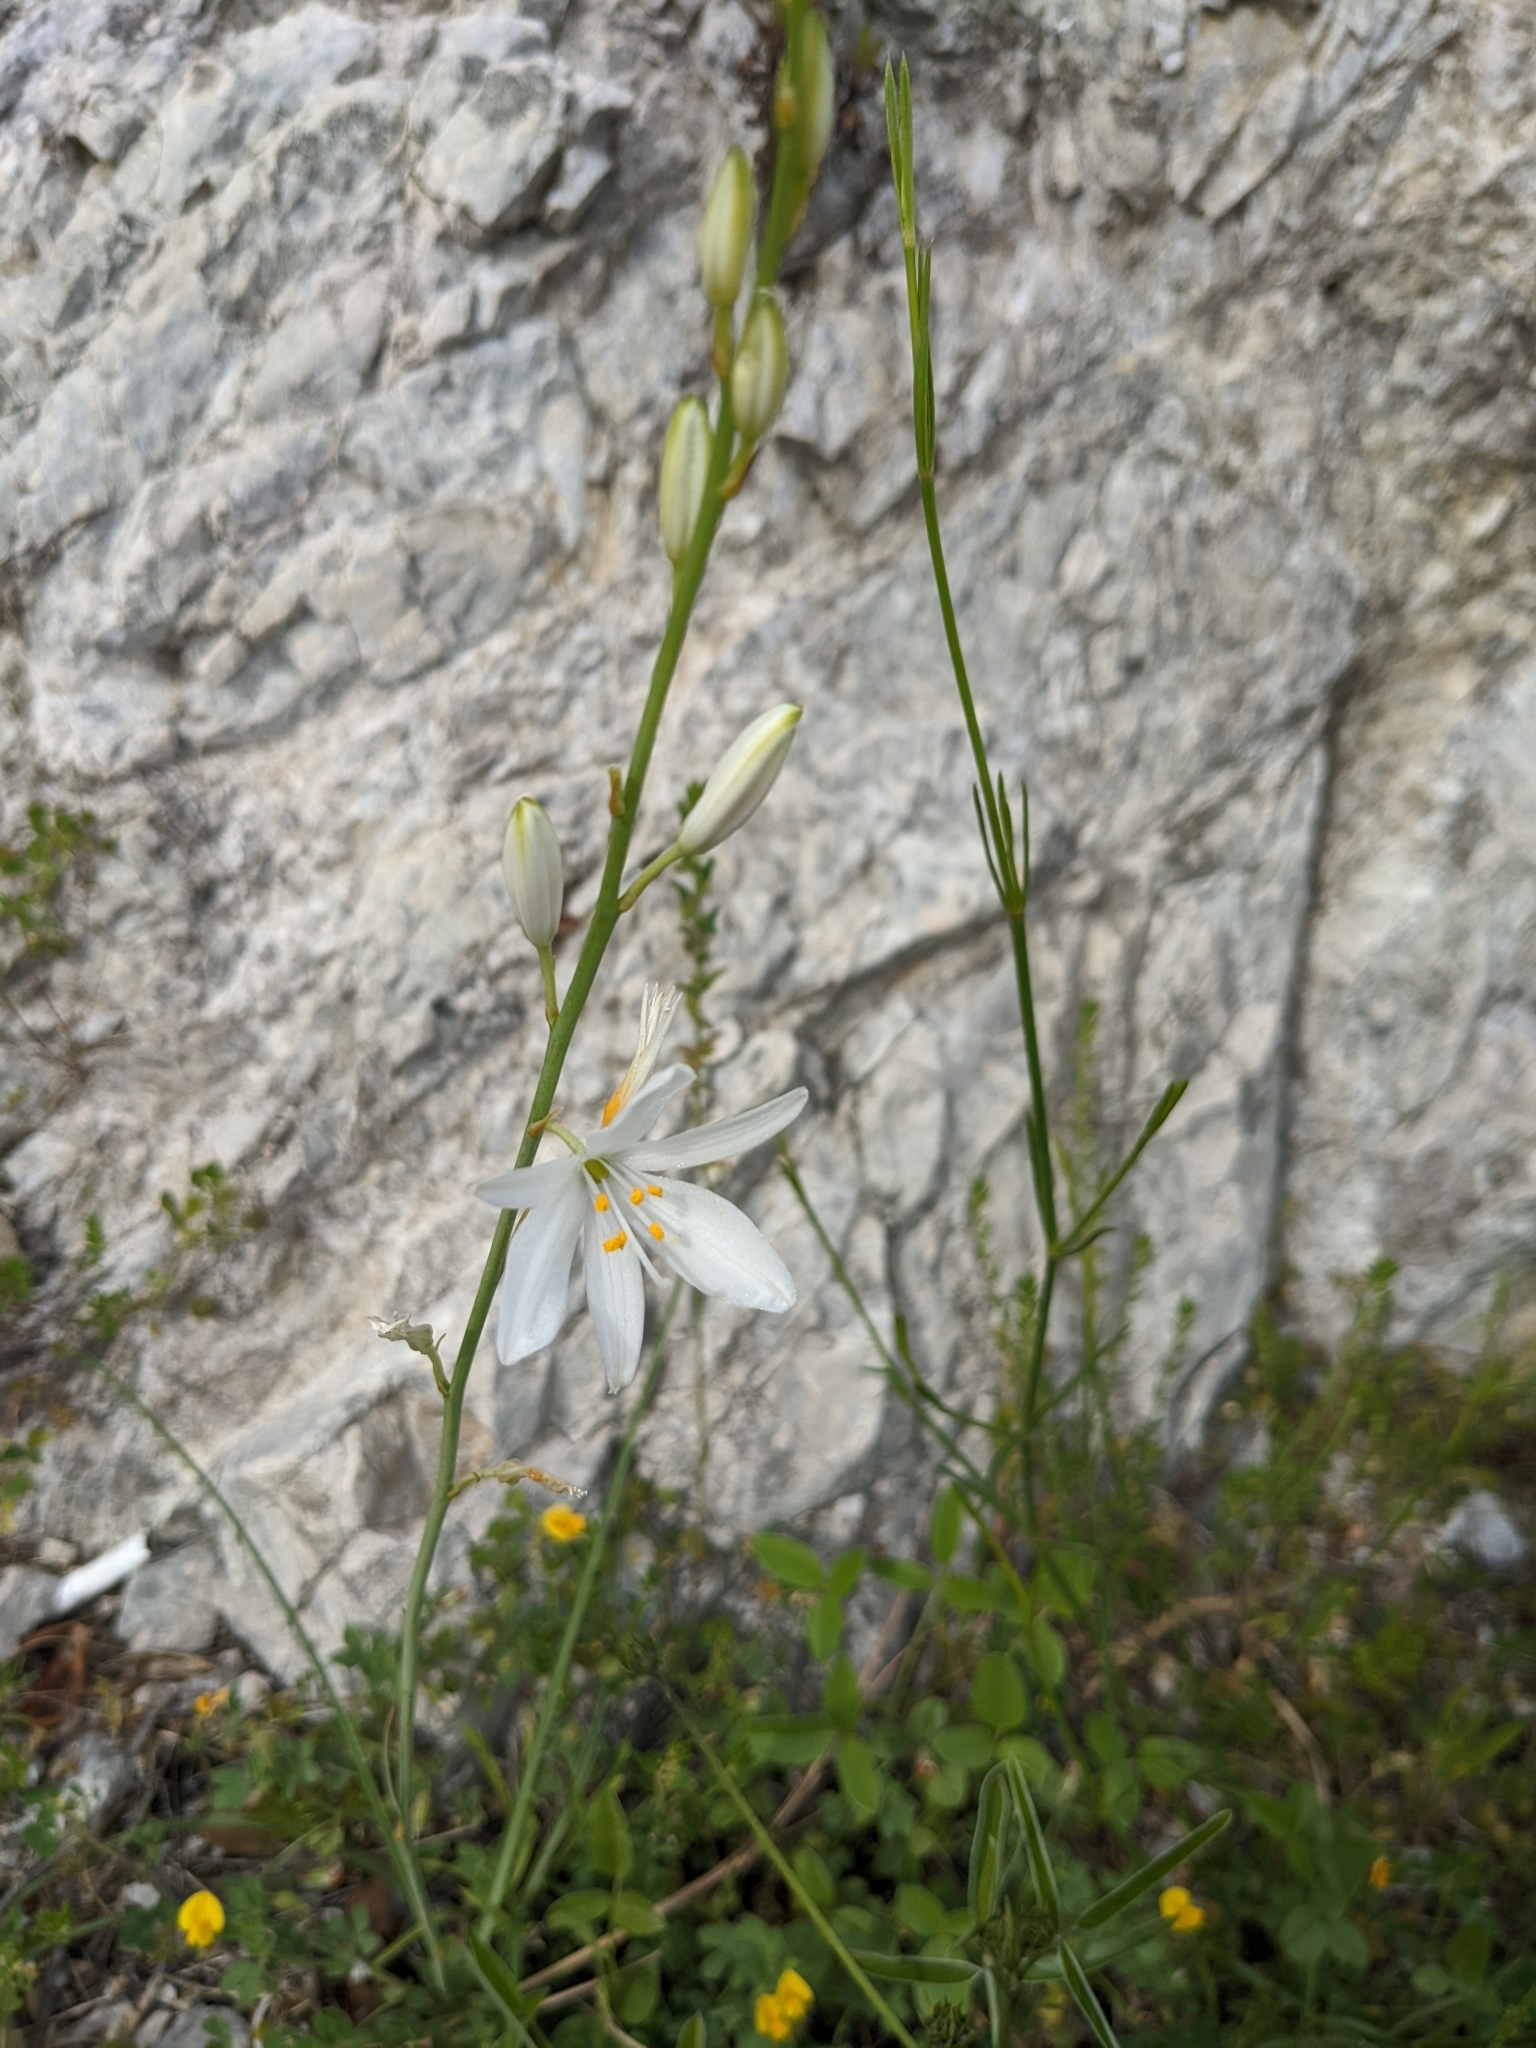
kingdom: Plantae
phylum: Tracheophyta
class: Liliopsida
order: Asparagales
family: Asparagaceae
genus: Anthericum
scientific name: Anthericum liliago
